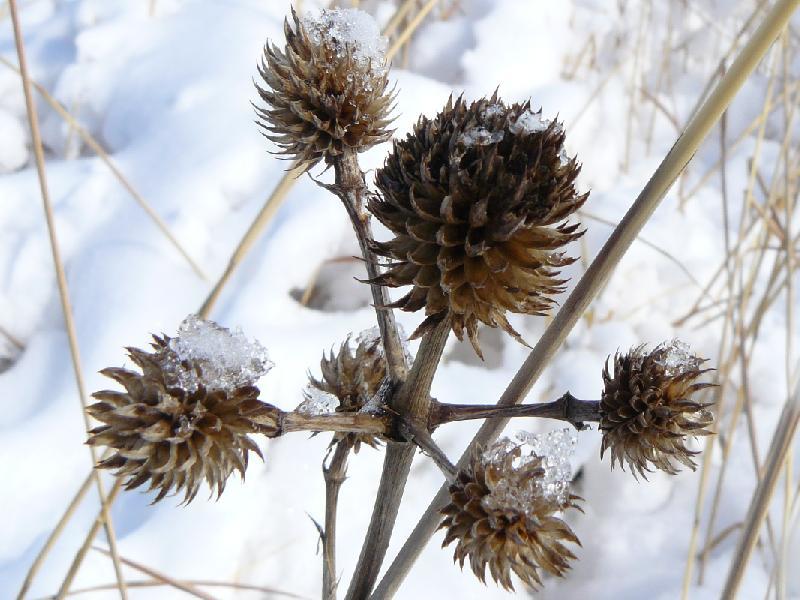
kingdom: Plantae
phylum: Tracheophyta
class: Magnoliopsida
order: Apiales
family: Apiaceae
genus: Eryngium
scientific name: Eryngium yuccifolium
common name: Button eryngo
